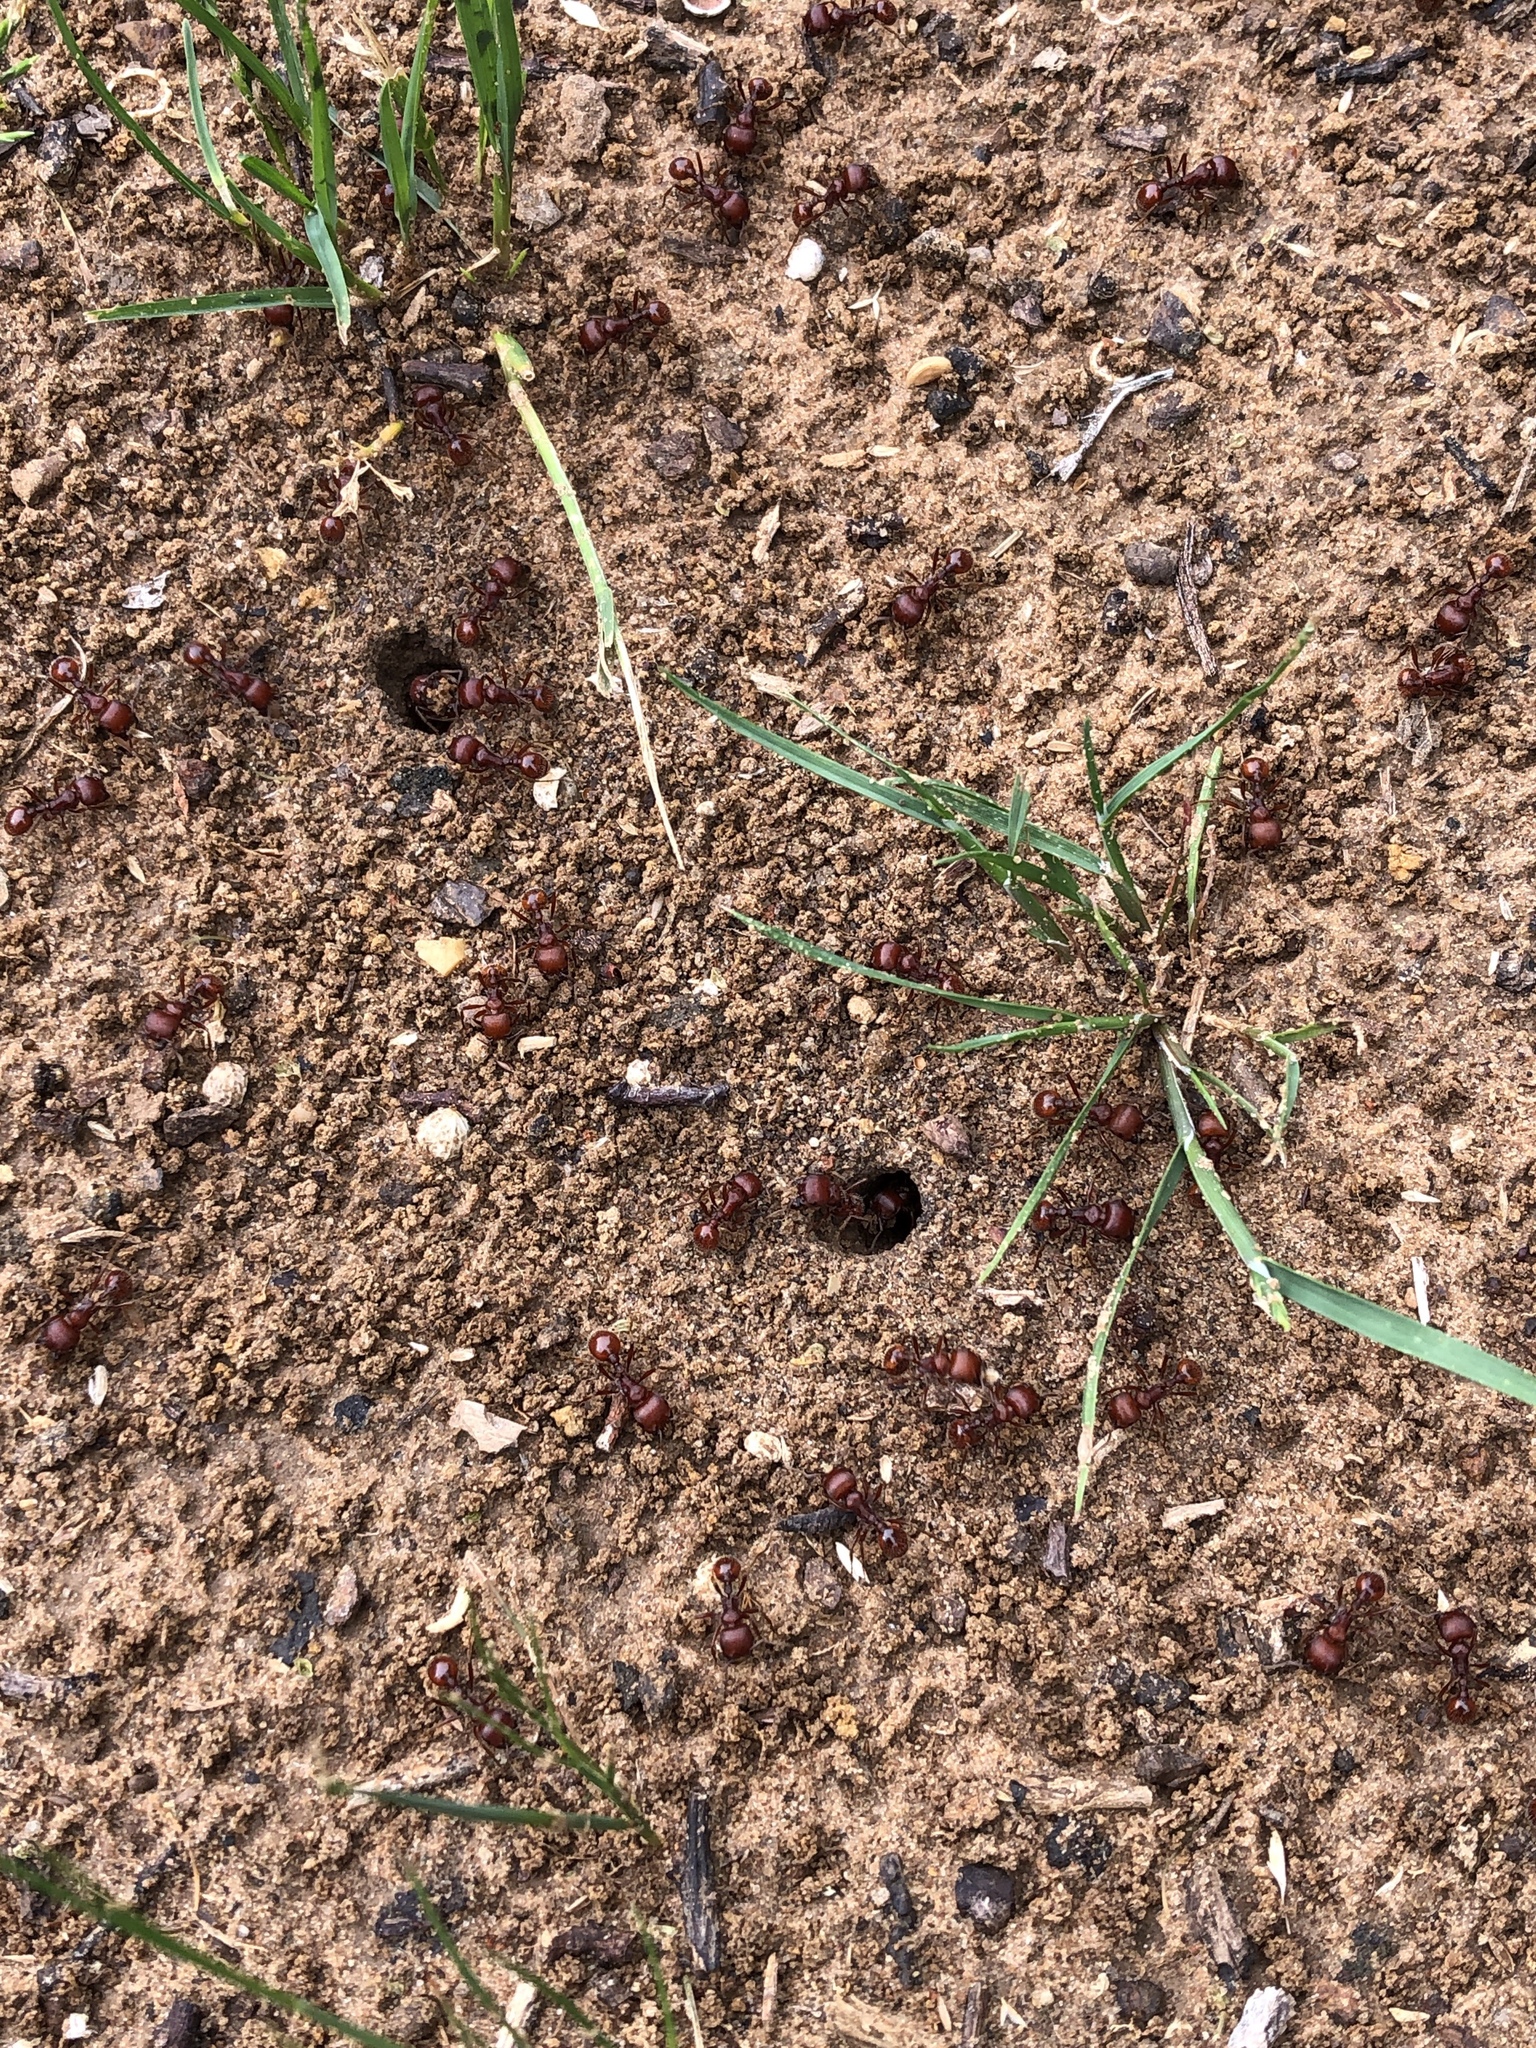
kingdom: Animalia
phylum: Arthropoda
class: Insecta
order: Hymenoptera
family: Formicidae
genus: Pogonomyrmex
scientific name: Pogonomyrmex barbatus
